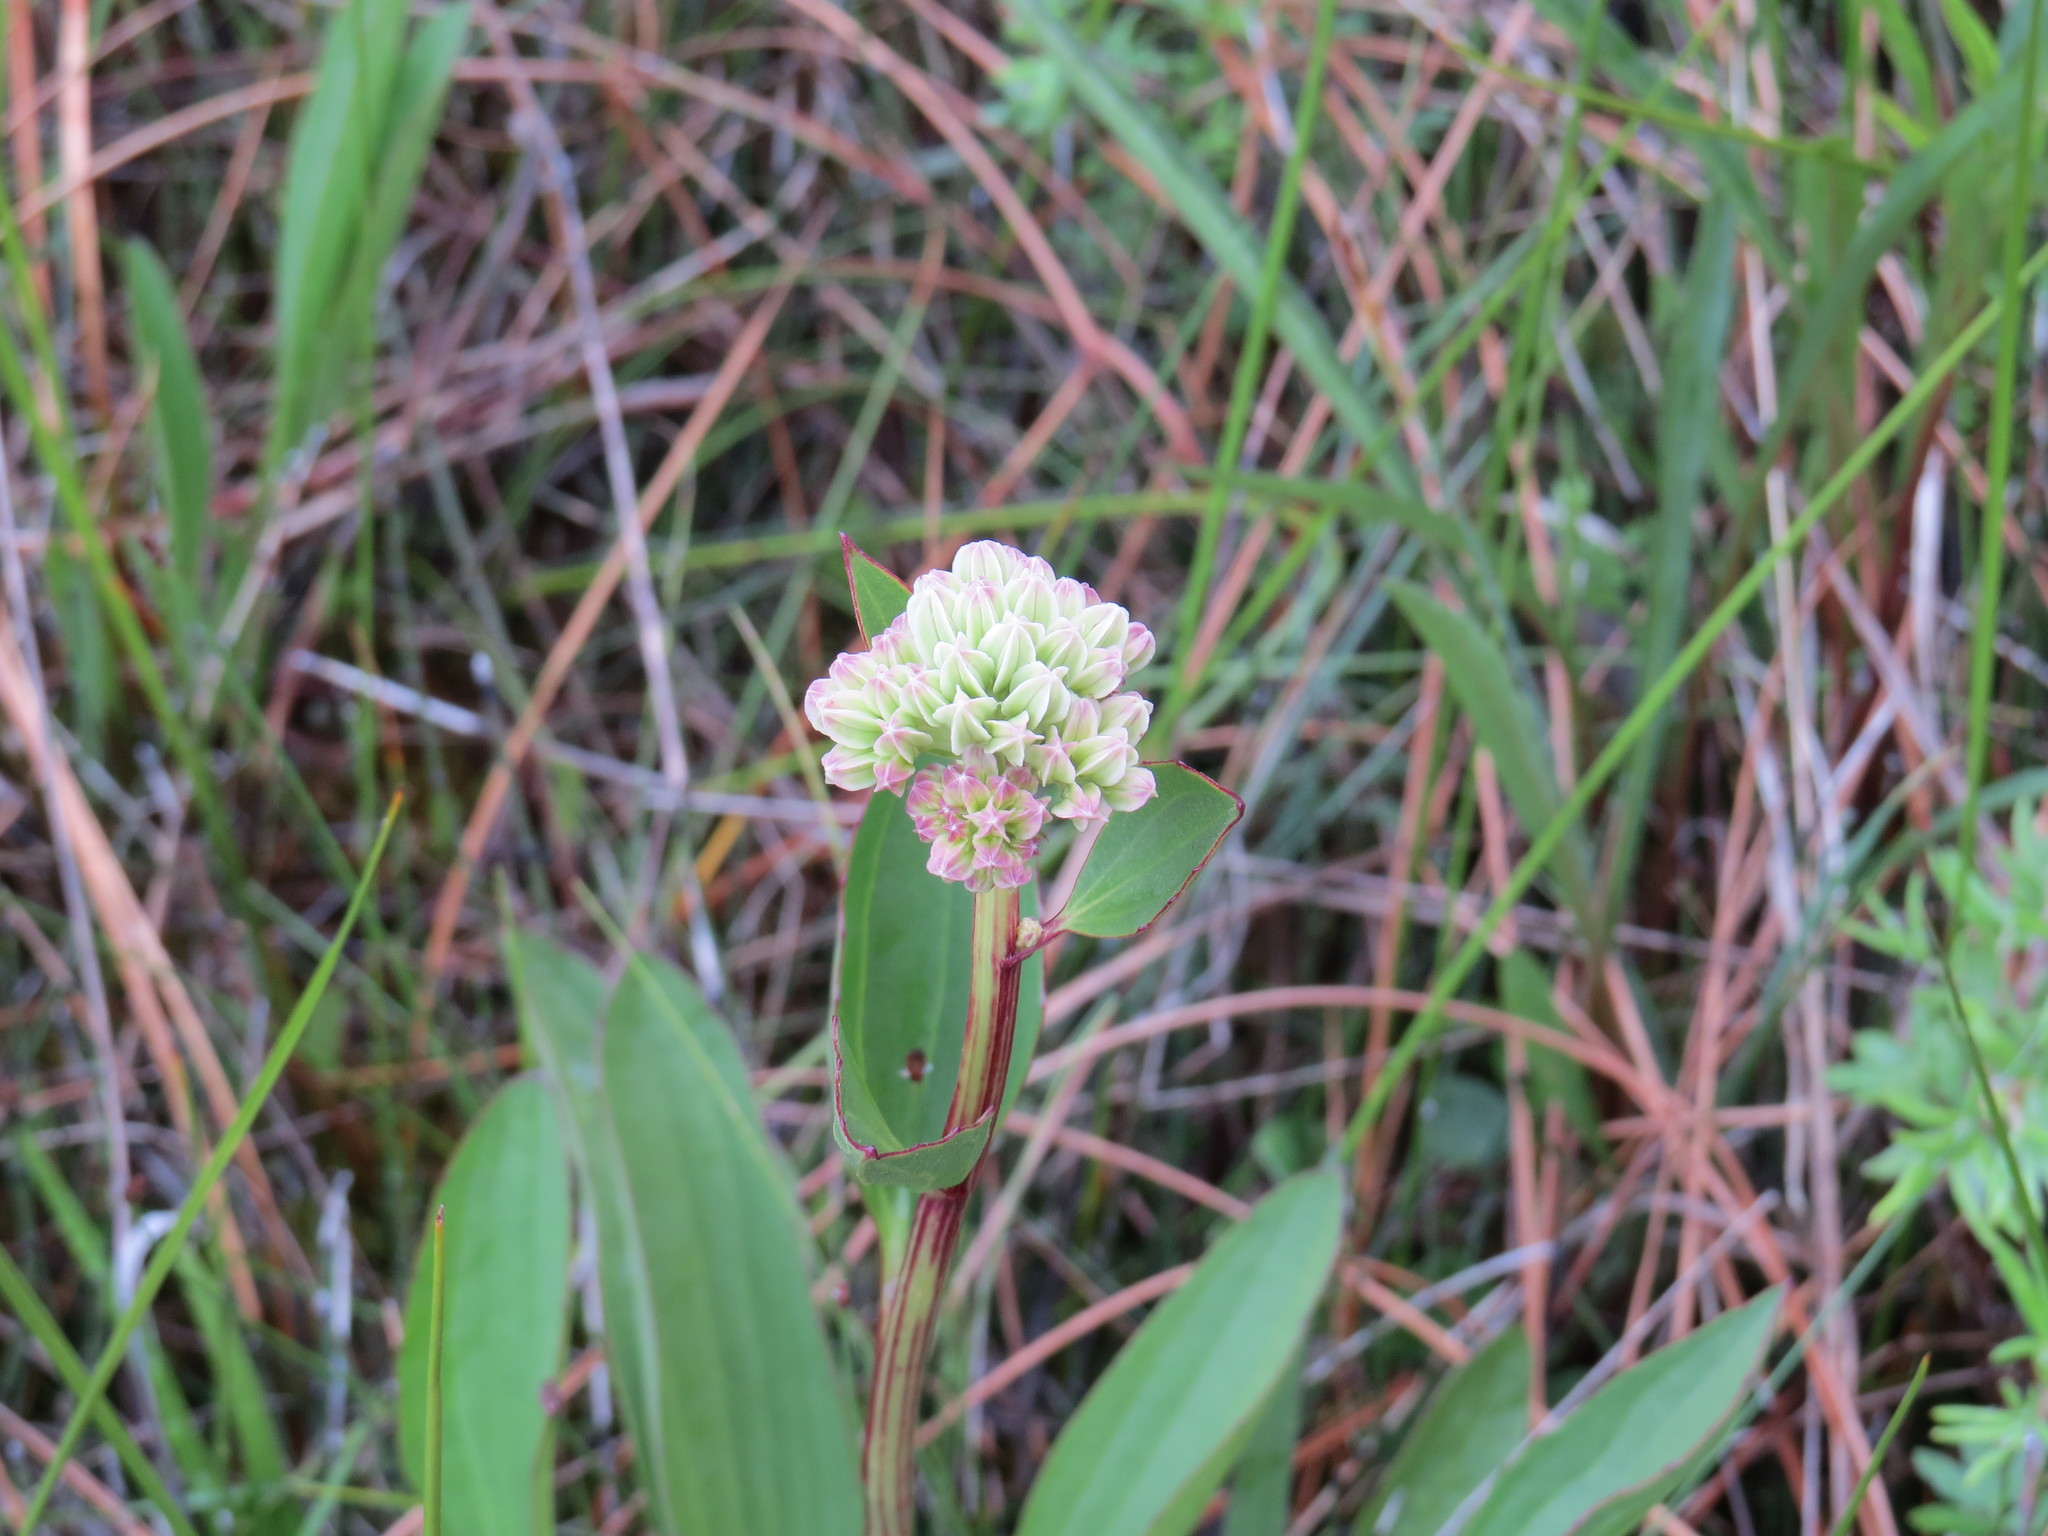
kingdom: Plantae
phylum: Tracheophyta
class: Magnoliopsida
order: Asterales
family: Asteraceae
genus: Arnoglossum
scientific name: Arnoglossum plantagineum
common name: Groove-stemmed indian-plantain
